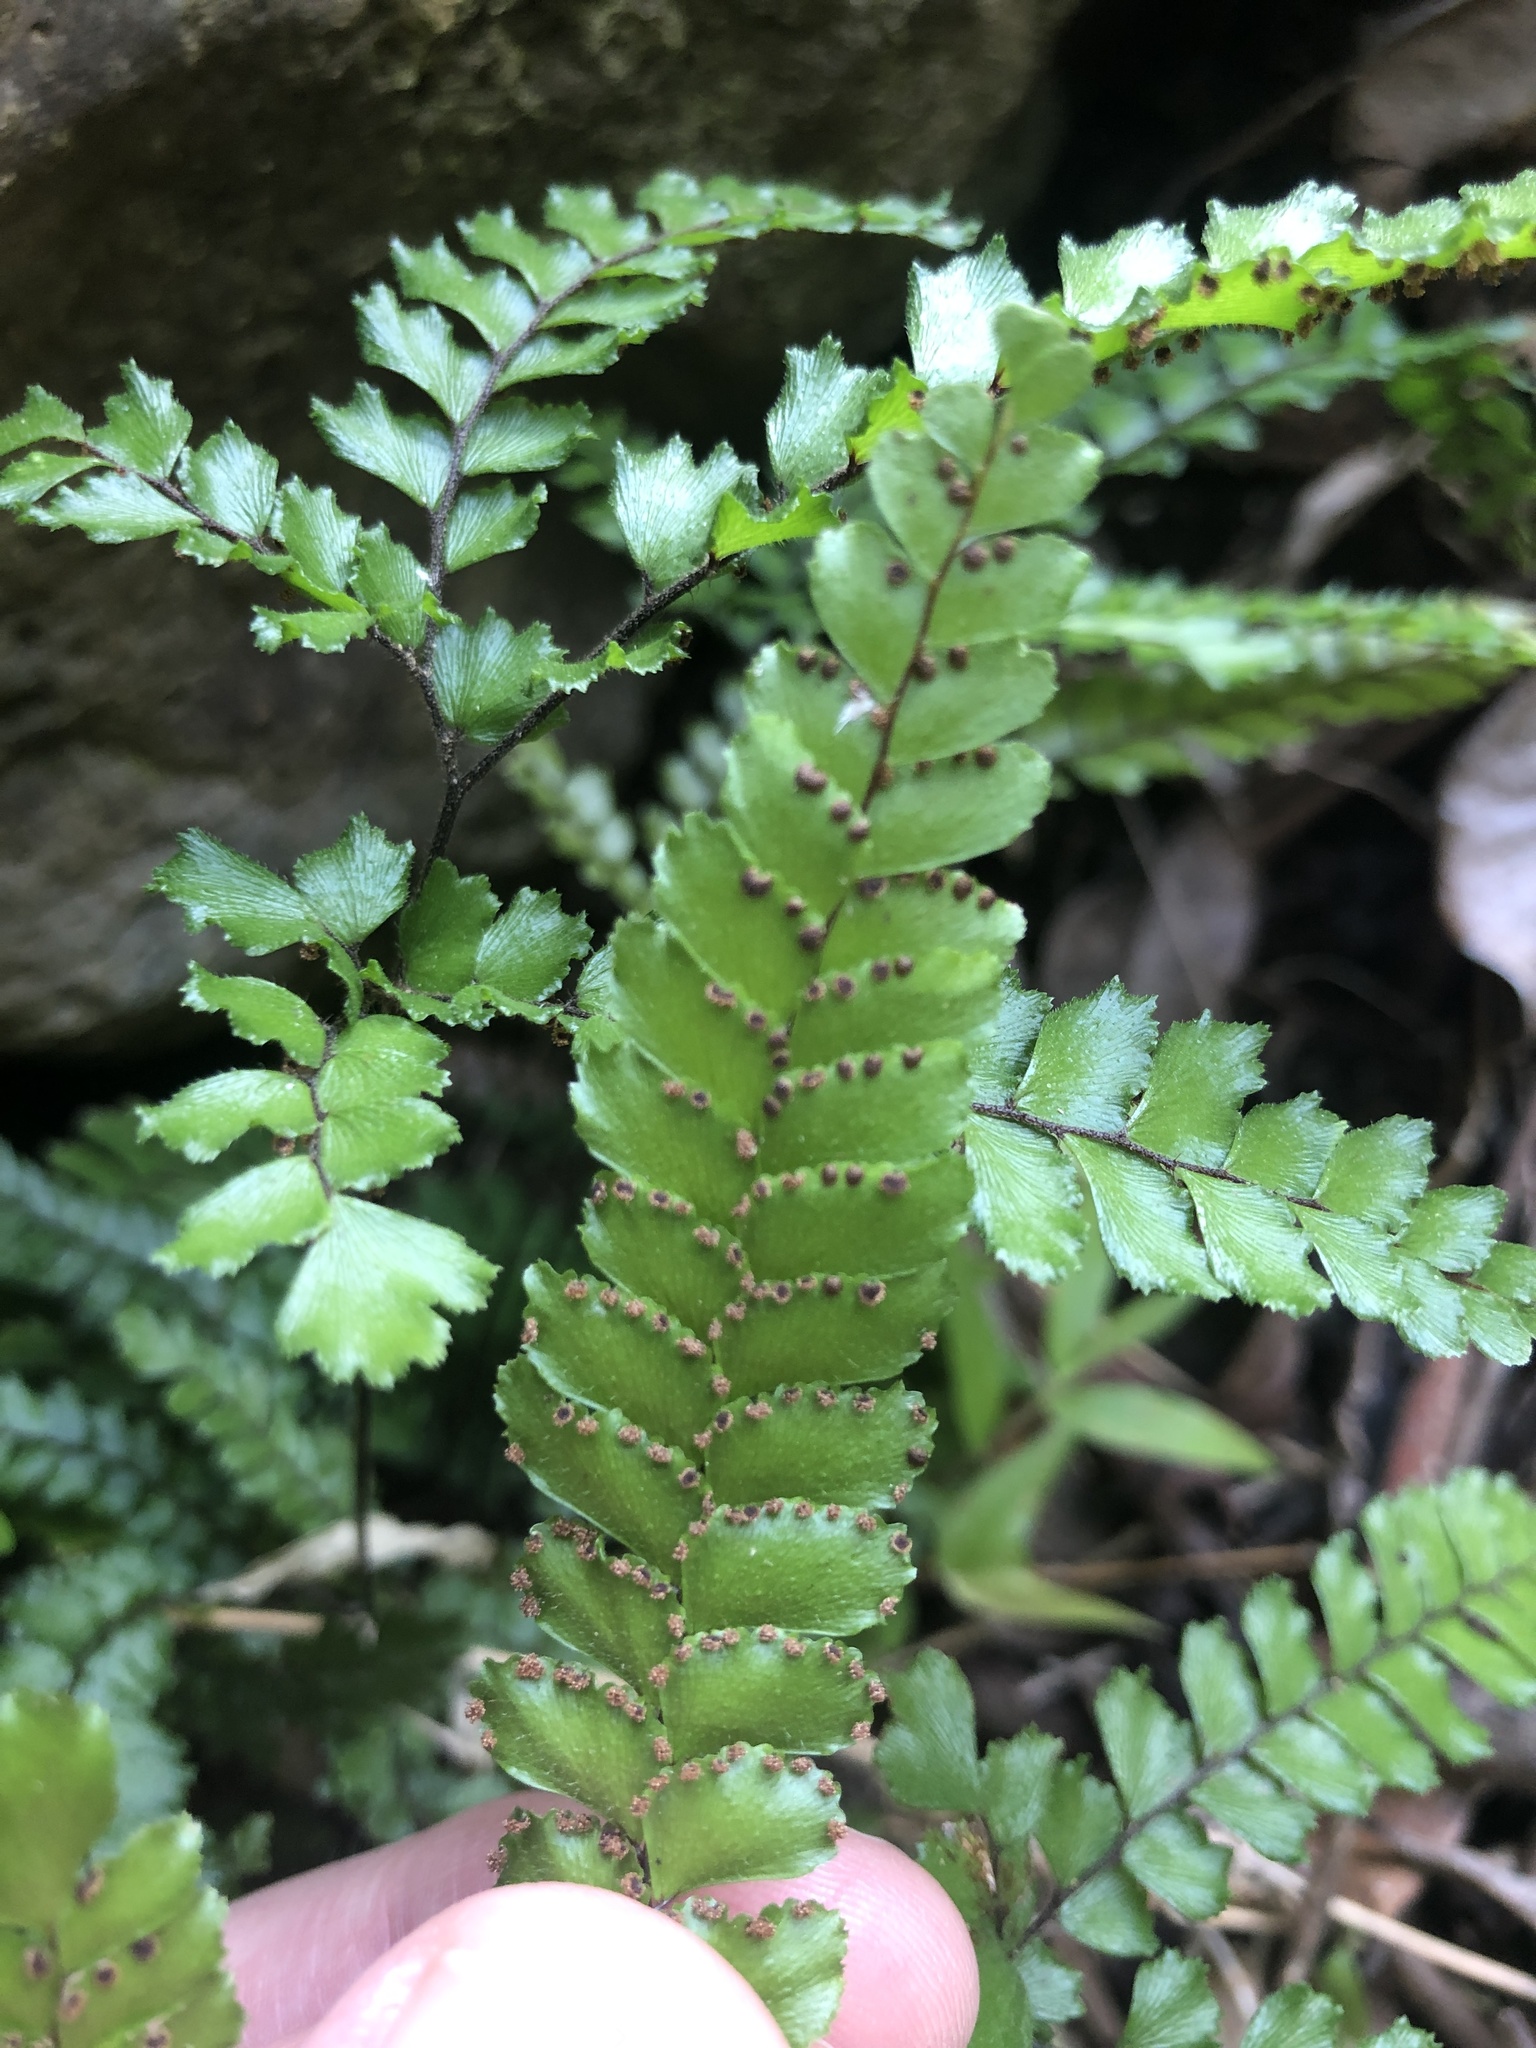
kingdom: Plantae
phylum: Tracheophyta
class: Polypodiopsida
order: Polypodiales
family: Pteridaceae
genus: Adiantum
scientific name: Adiantum hispidulum
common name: Rough maidenhair
